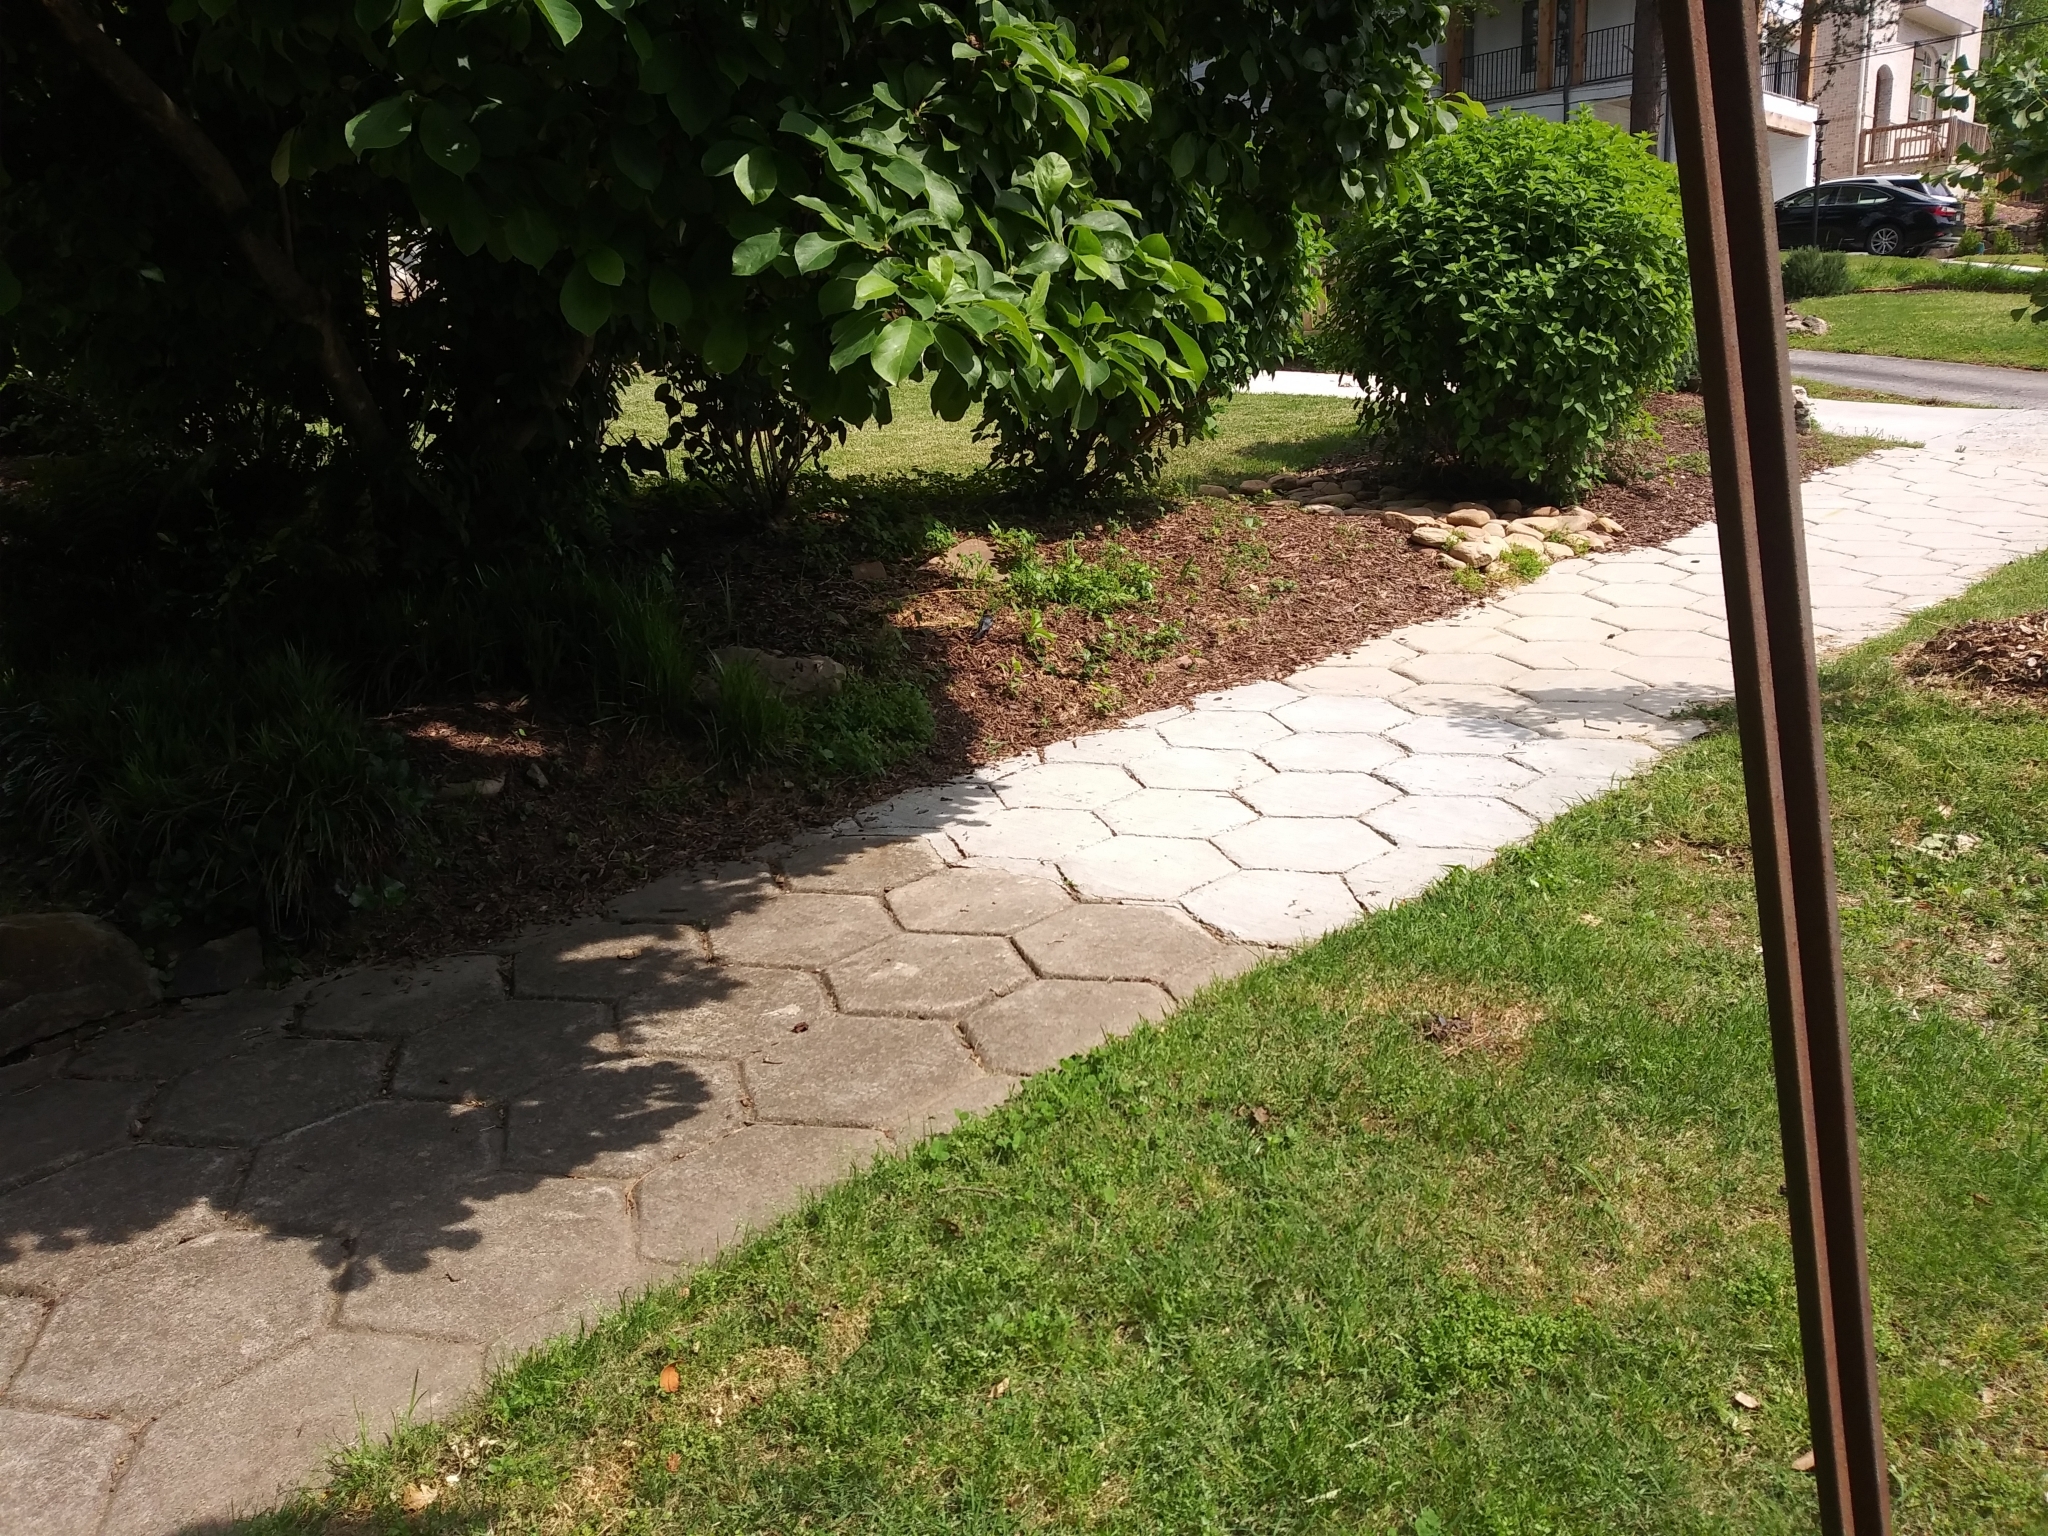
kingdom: Animalia
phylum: Chordata
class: Aves
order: Passeriformes
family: Icteridae
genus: Molothrus
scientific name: Molothrus ater
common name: Brown-headed cowbird
